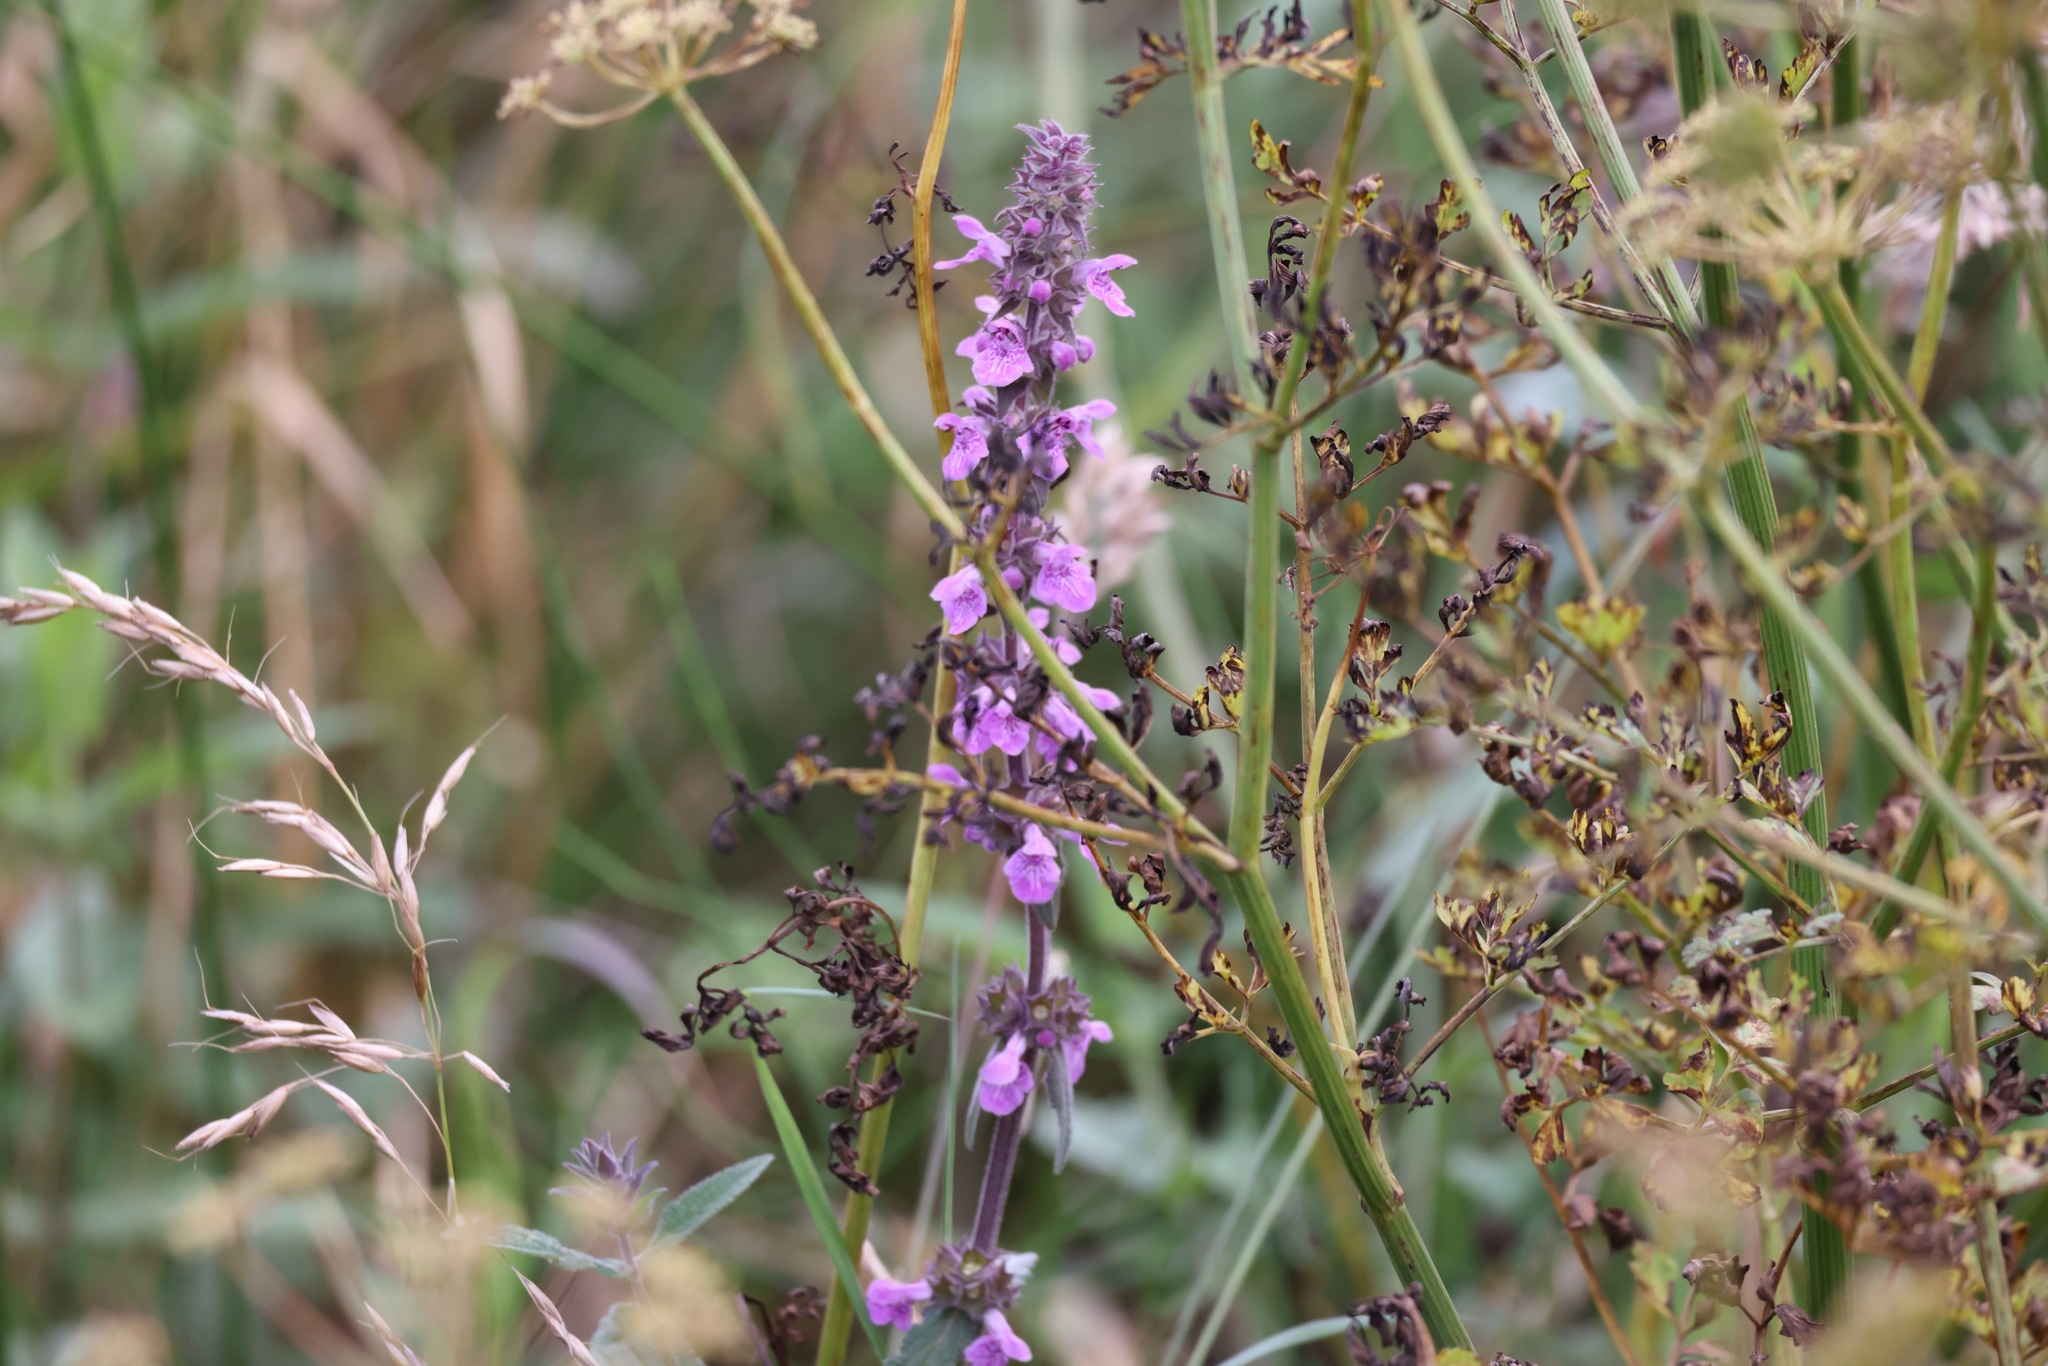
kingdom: Plantae
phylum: Tracheophyta
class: Magnoliopsida
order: Lamiales
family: Lamiaceae
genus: Stachys
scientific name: Stachys palustris
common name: Marsh woundwort
